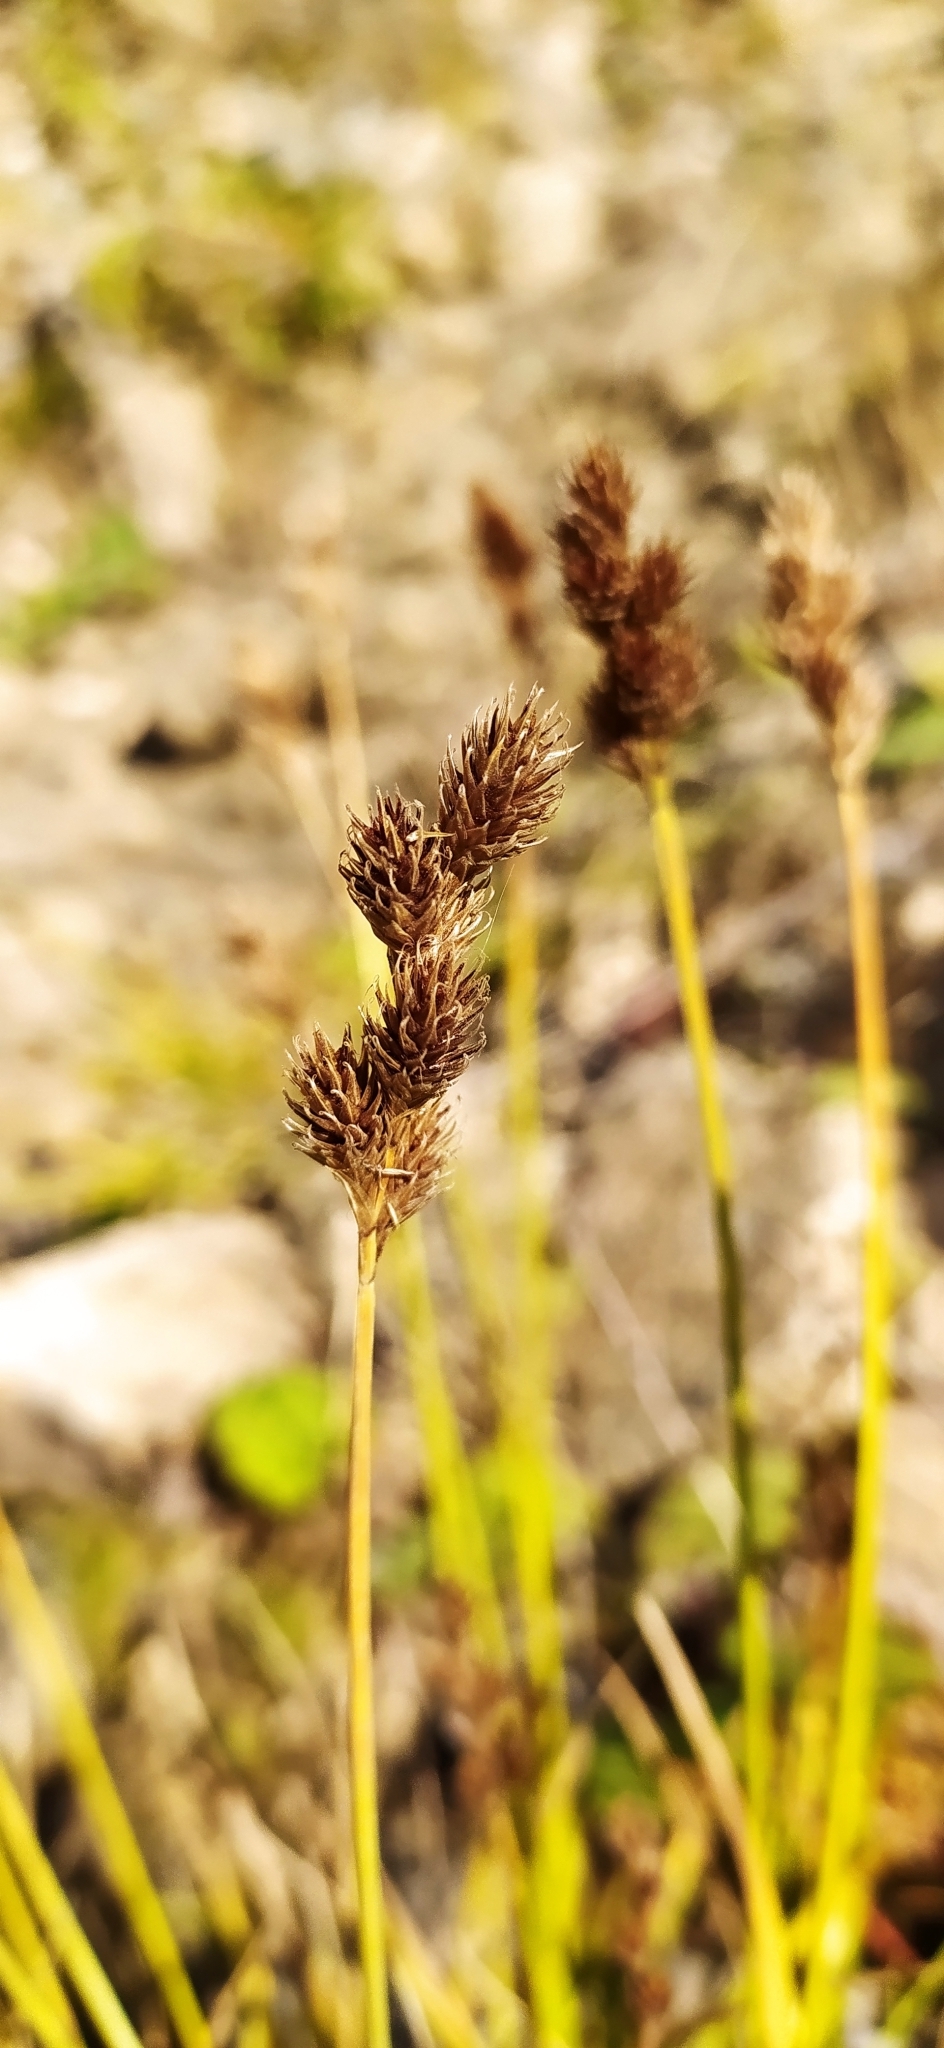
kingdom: Plantae
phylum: Tracheophyta
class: Liliopsida
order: Poales
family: Cyperaceae
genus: Carex
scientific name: Carex leporina
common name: Oval sedge
